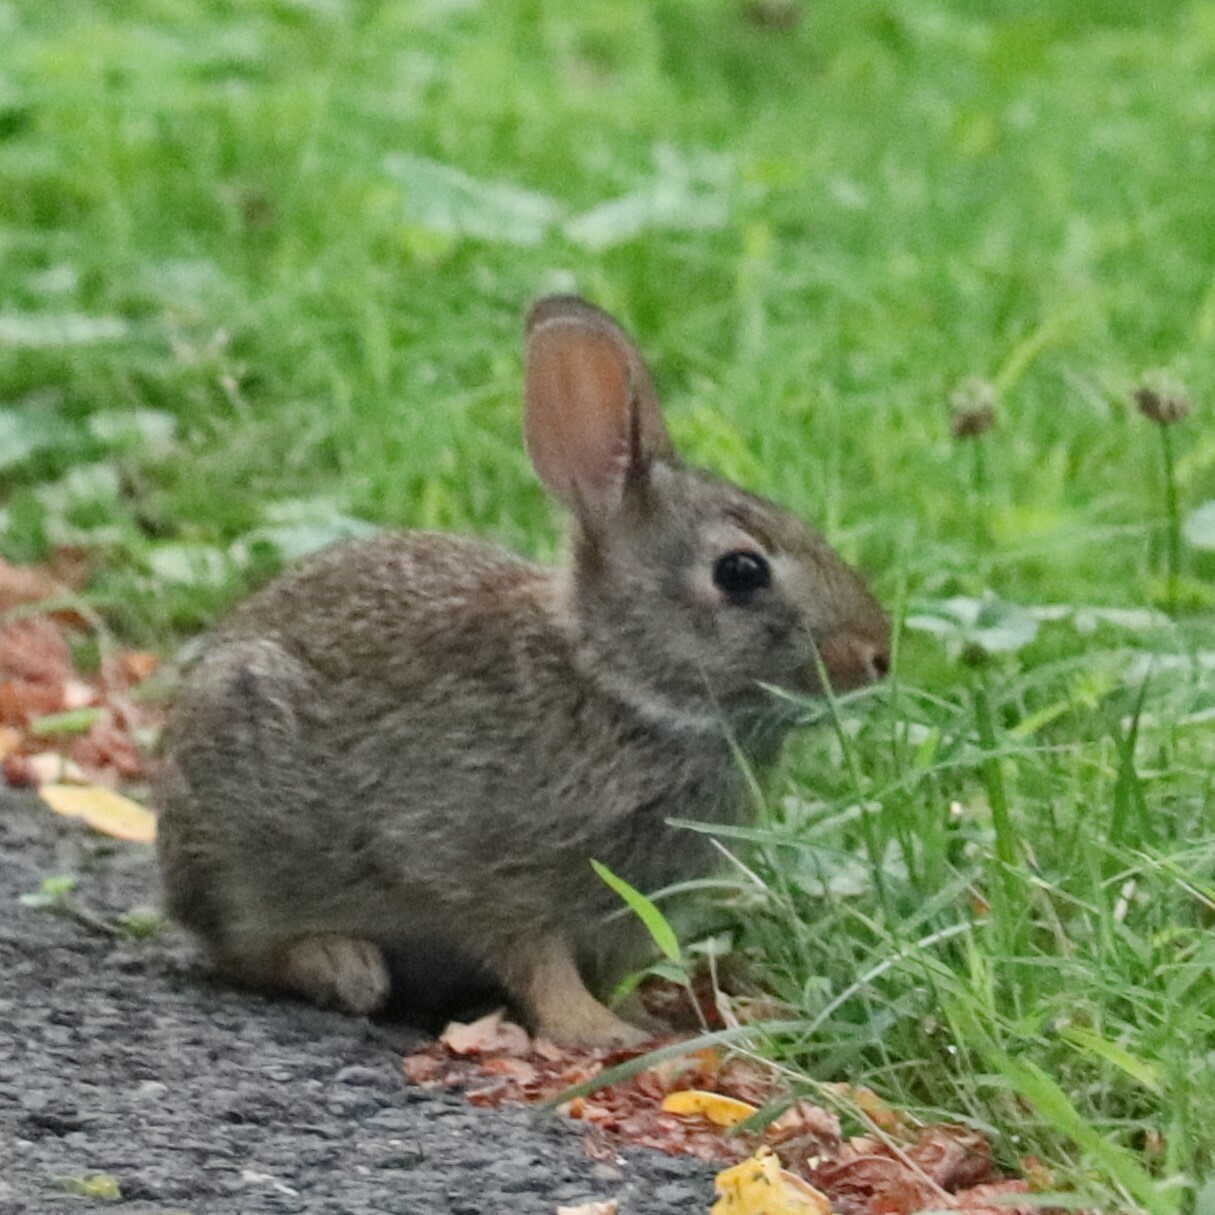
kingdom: Animalia
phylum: Chordata
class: Mammalia
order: Lagomorpha
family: Leporidae
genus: Sylvilagus
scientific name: Sylvilagus floridanus
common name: Eastern cottontail
